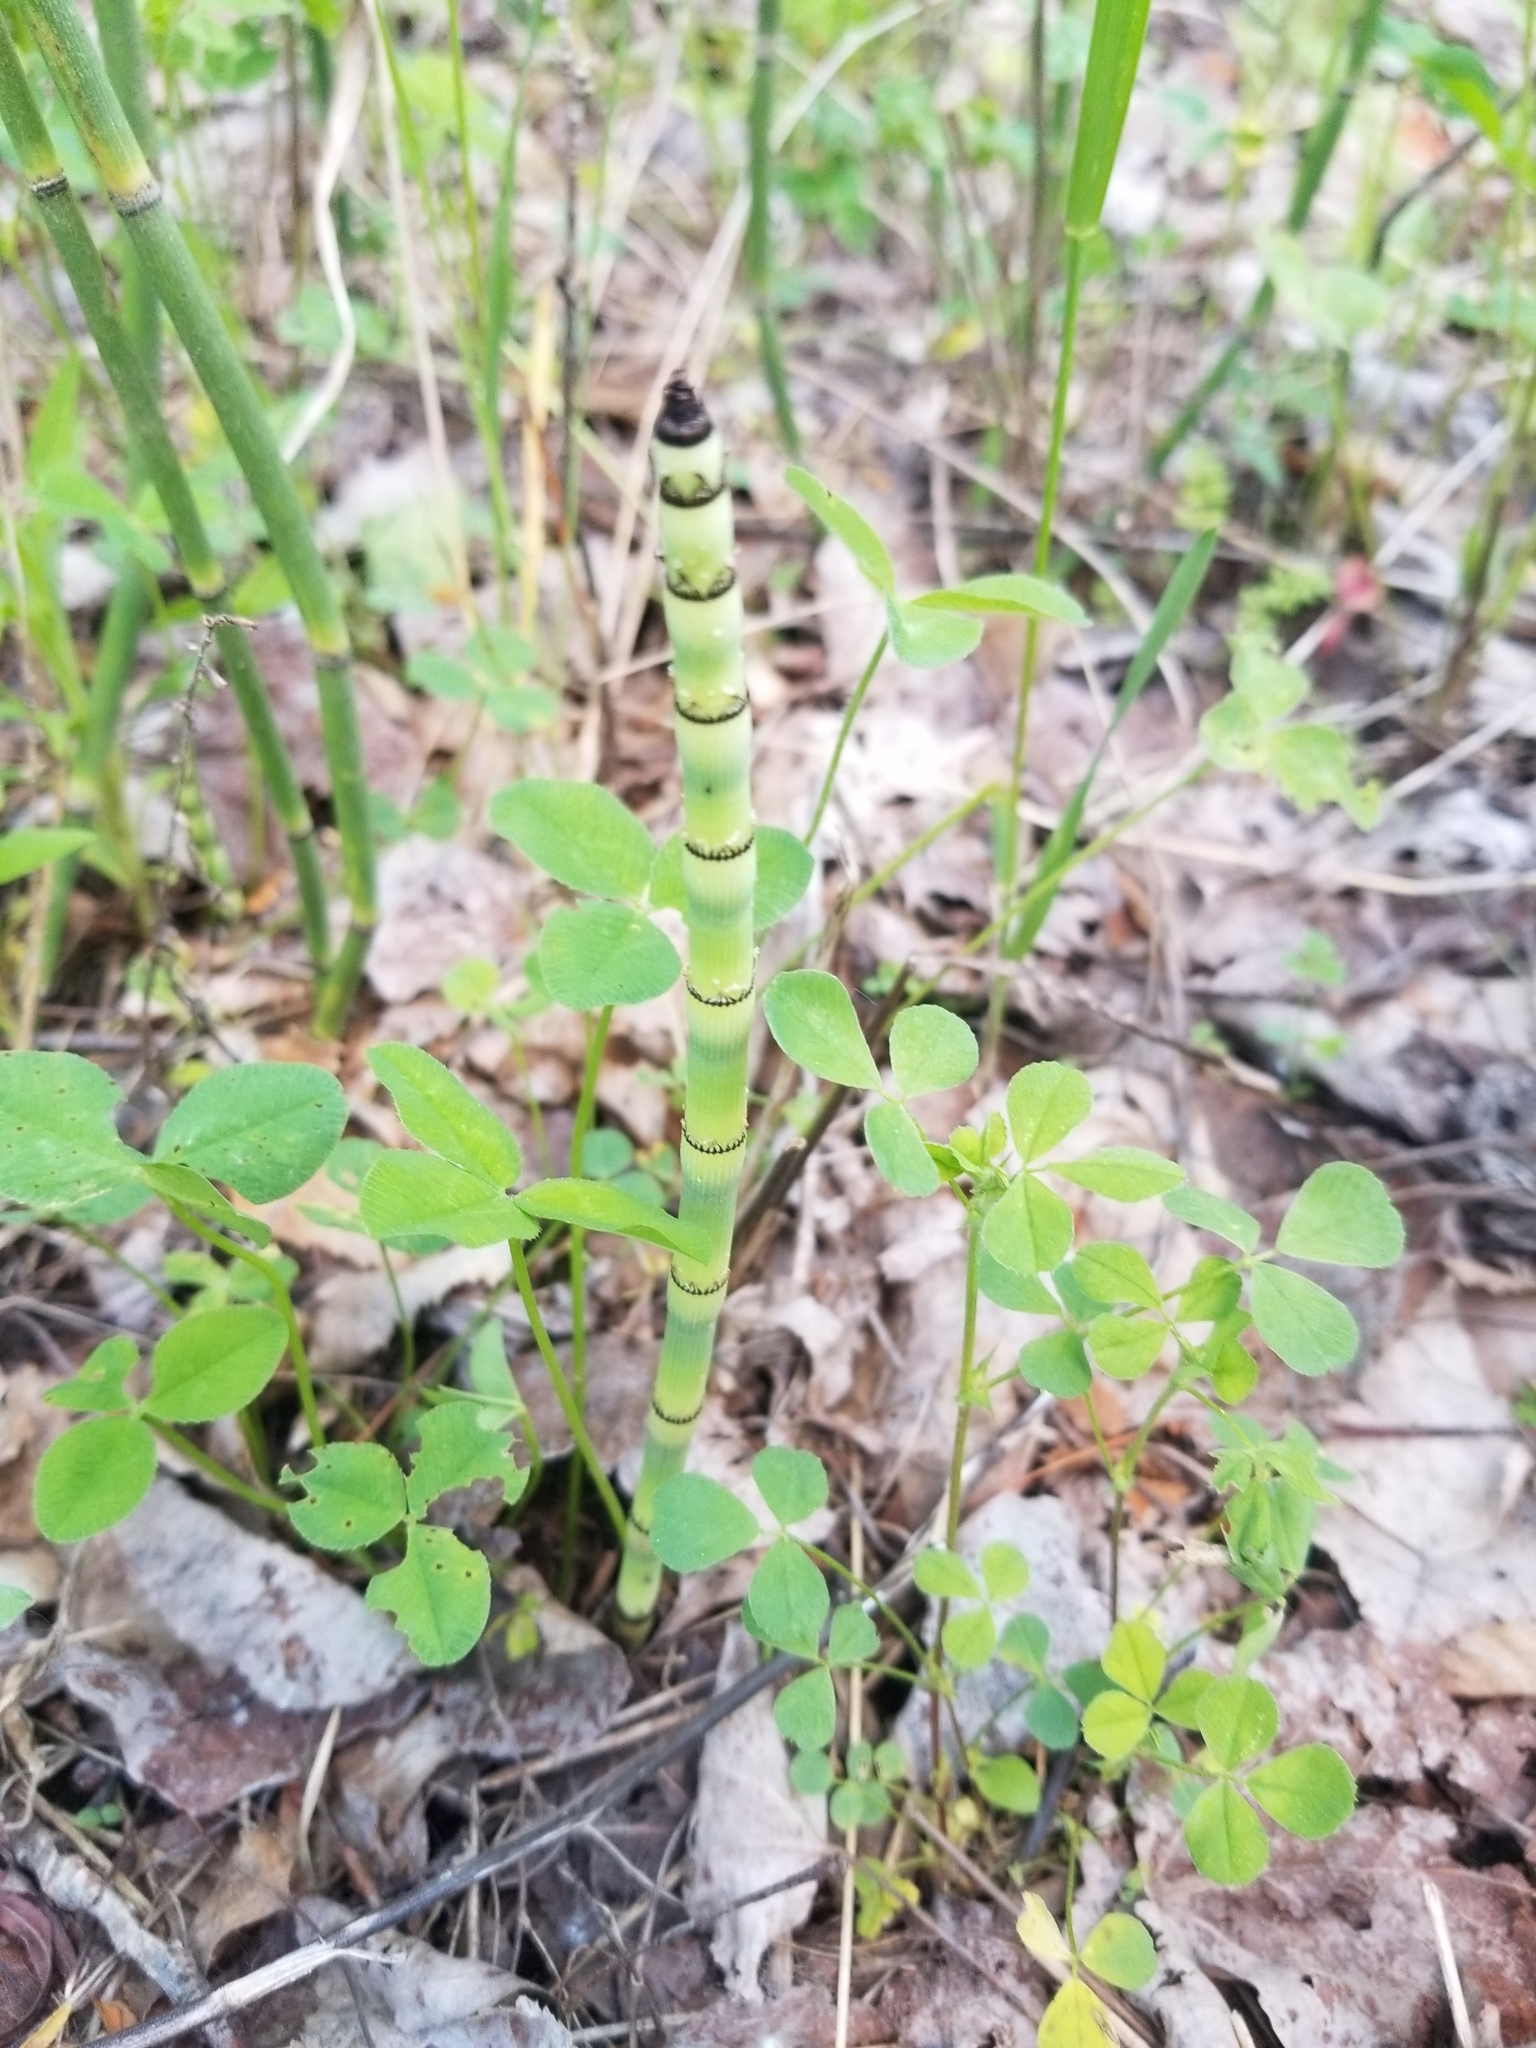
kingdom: Plantae
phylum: Tracheophyta
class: Polypodiopsida
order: Equisetales
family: Equisetaceae
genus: Equisetum
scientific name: Equisetum praealtum
